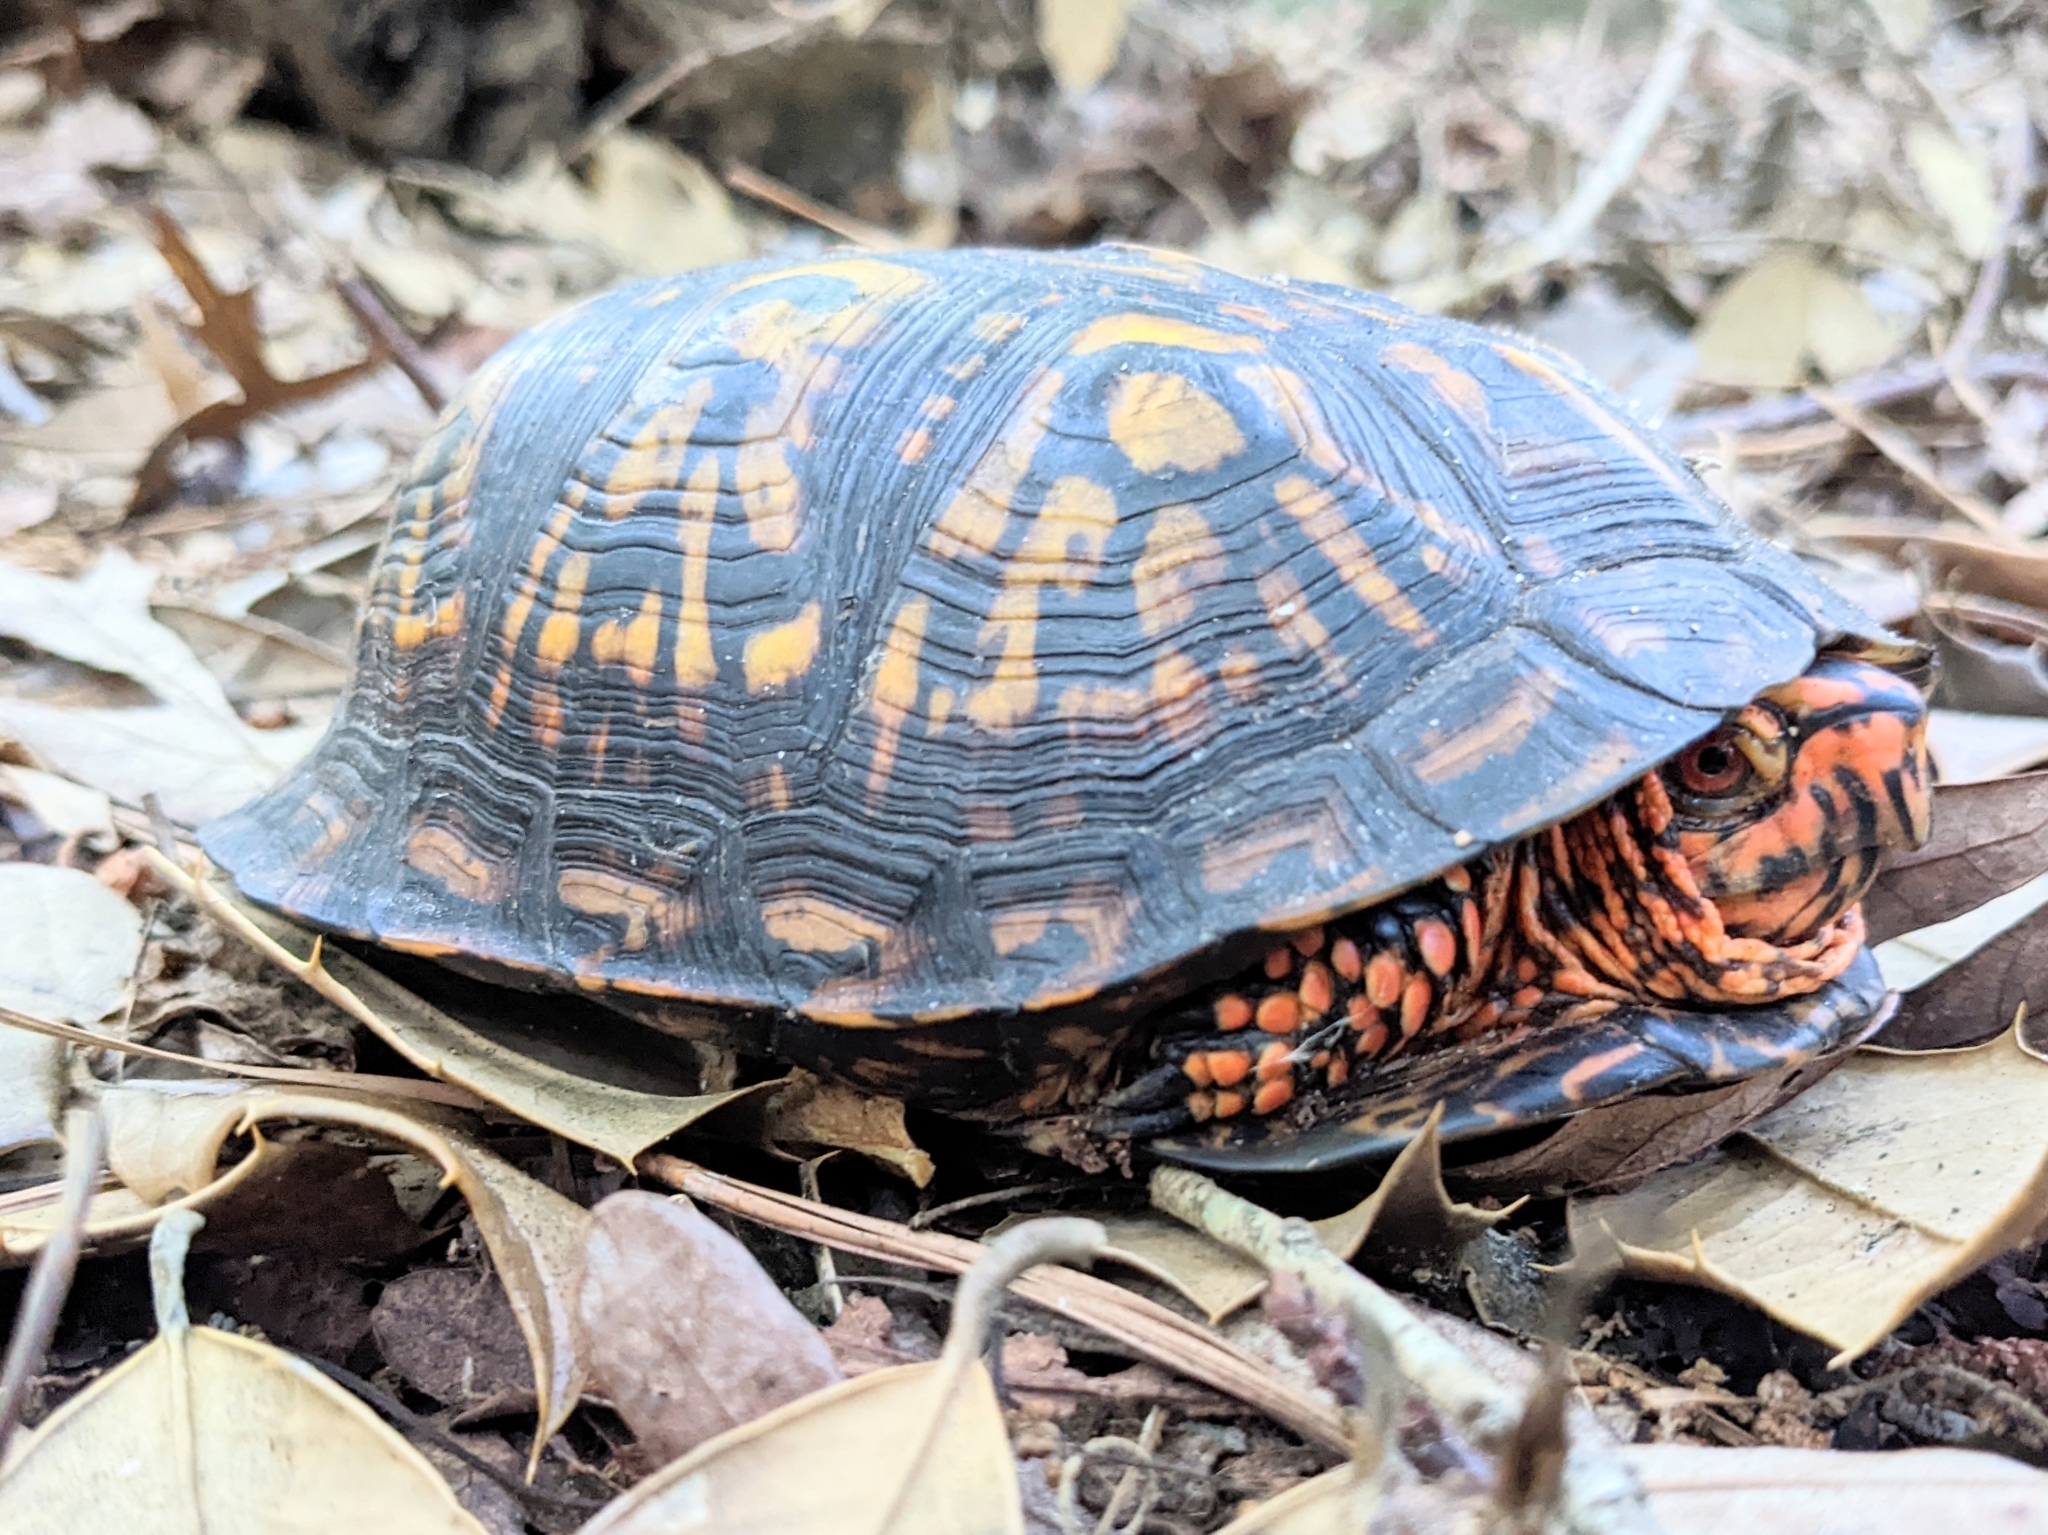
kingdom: Animalia
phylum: Chordata
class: Testudines
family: Emydidae
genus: Terrapene
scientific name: Terrapene carolina
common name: Common box turtle
